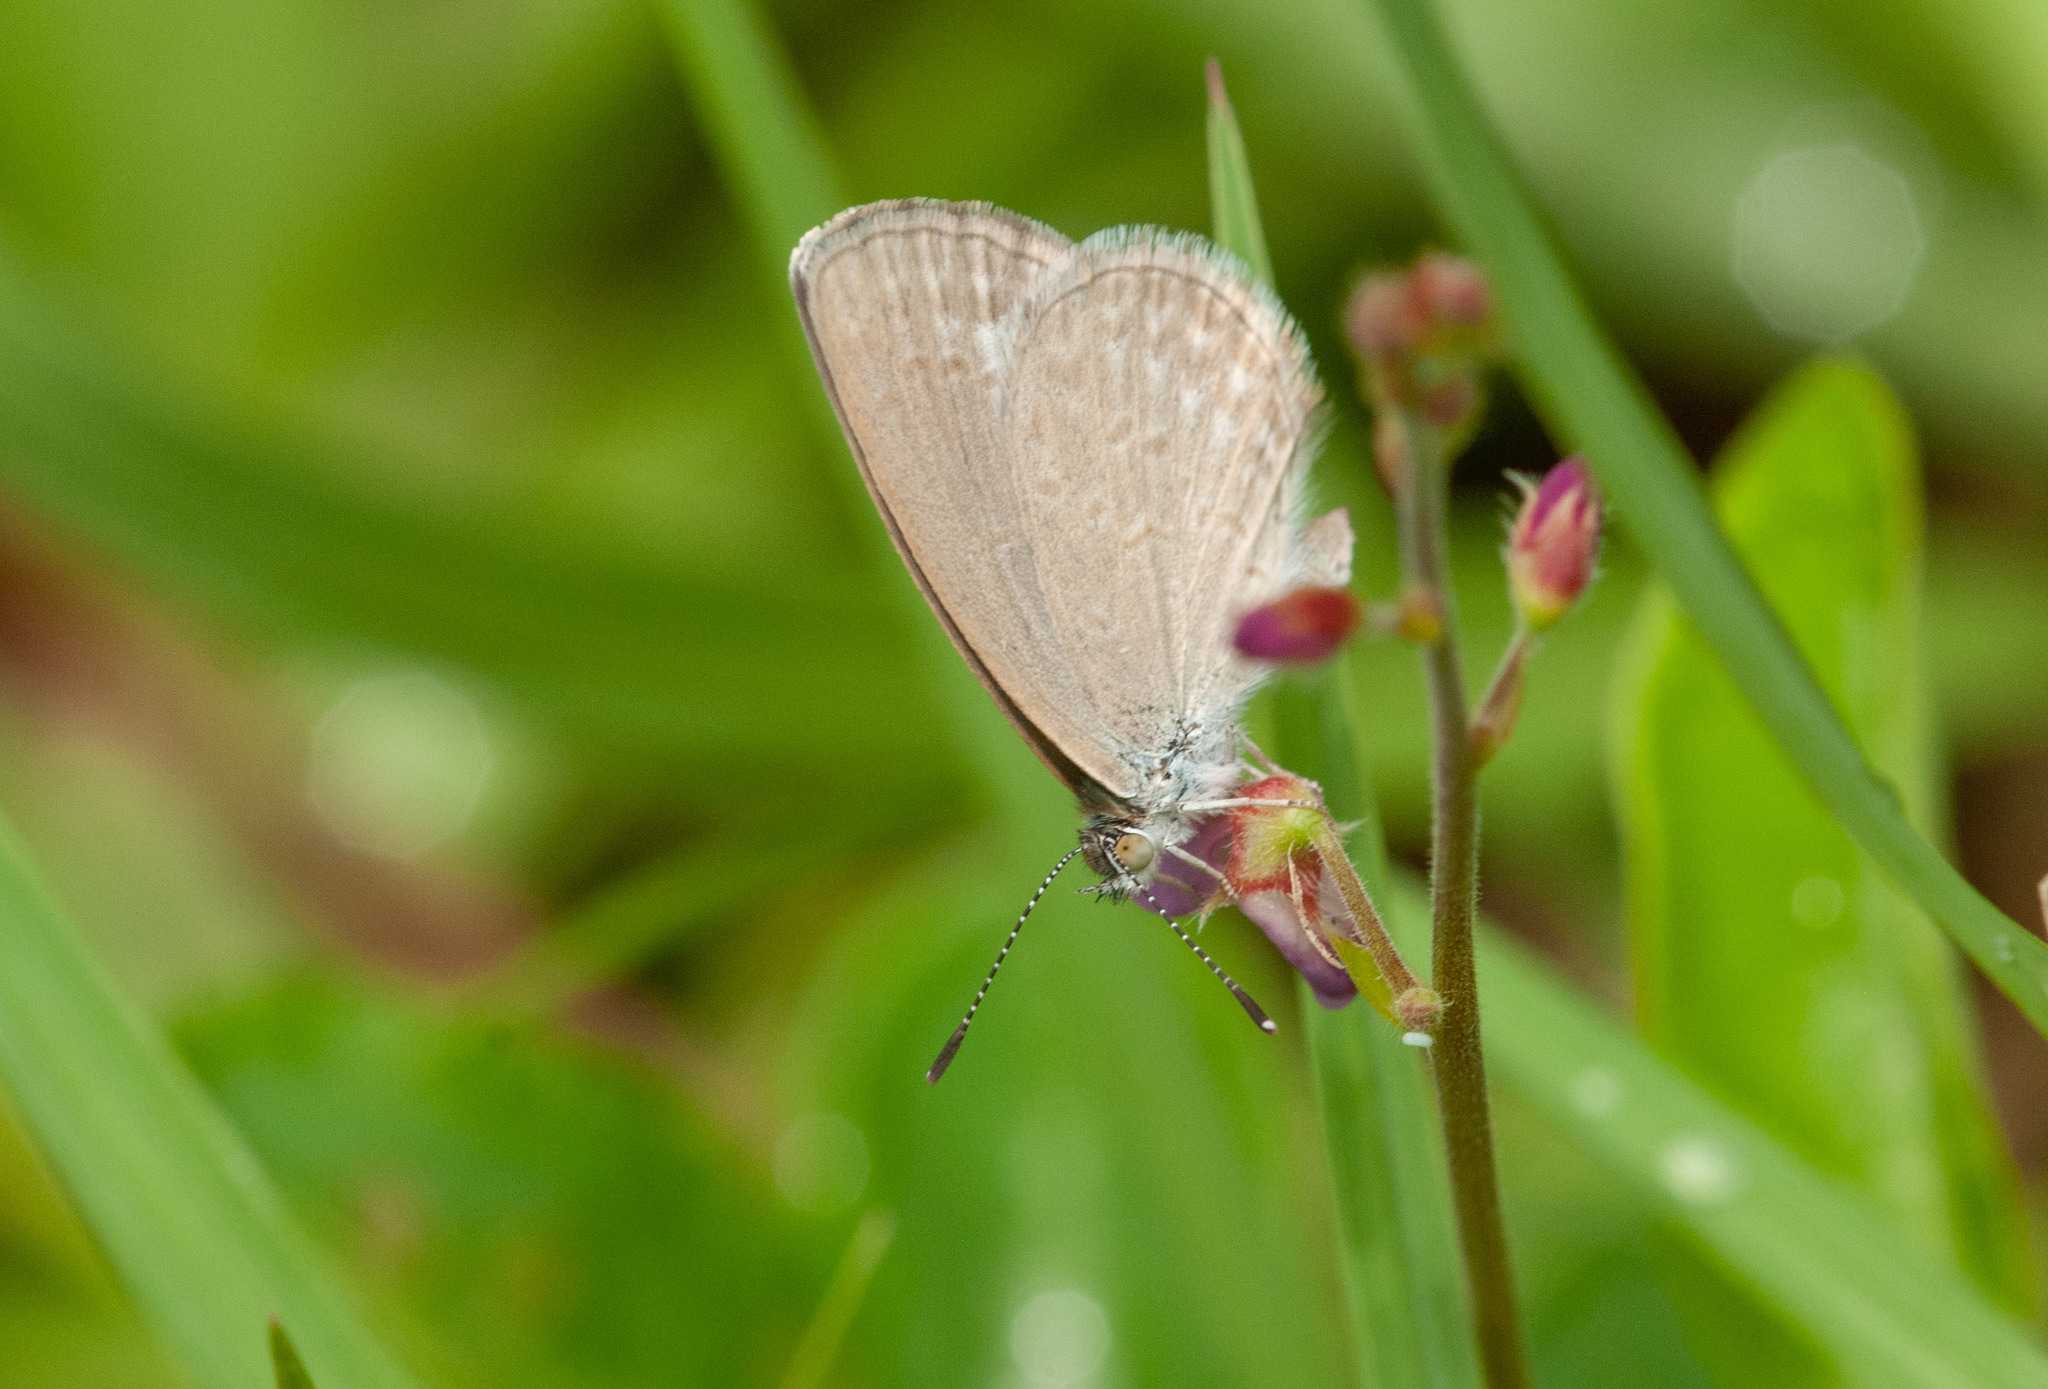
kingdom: Animalia
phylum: Arthropoda
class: Insecta
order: Lepidoptera
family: Lycaenidae
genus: Zizina
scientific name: Zizina labradus
